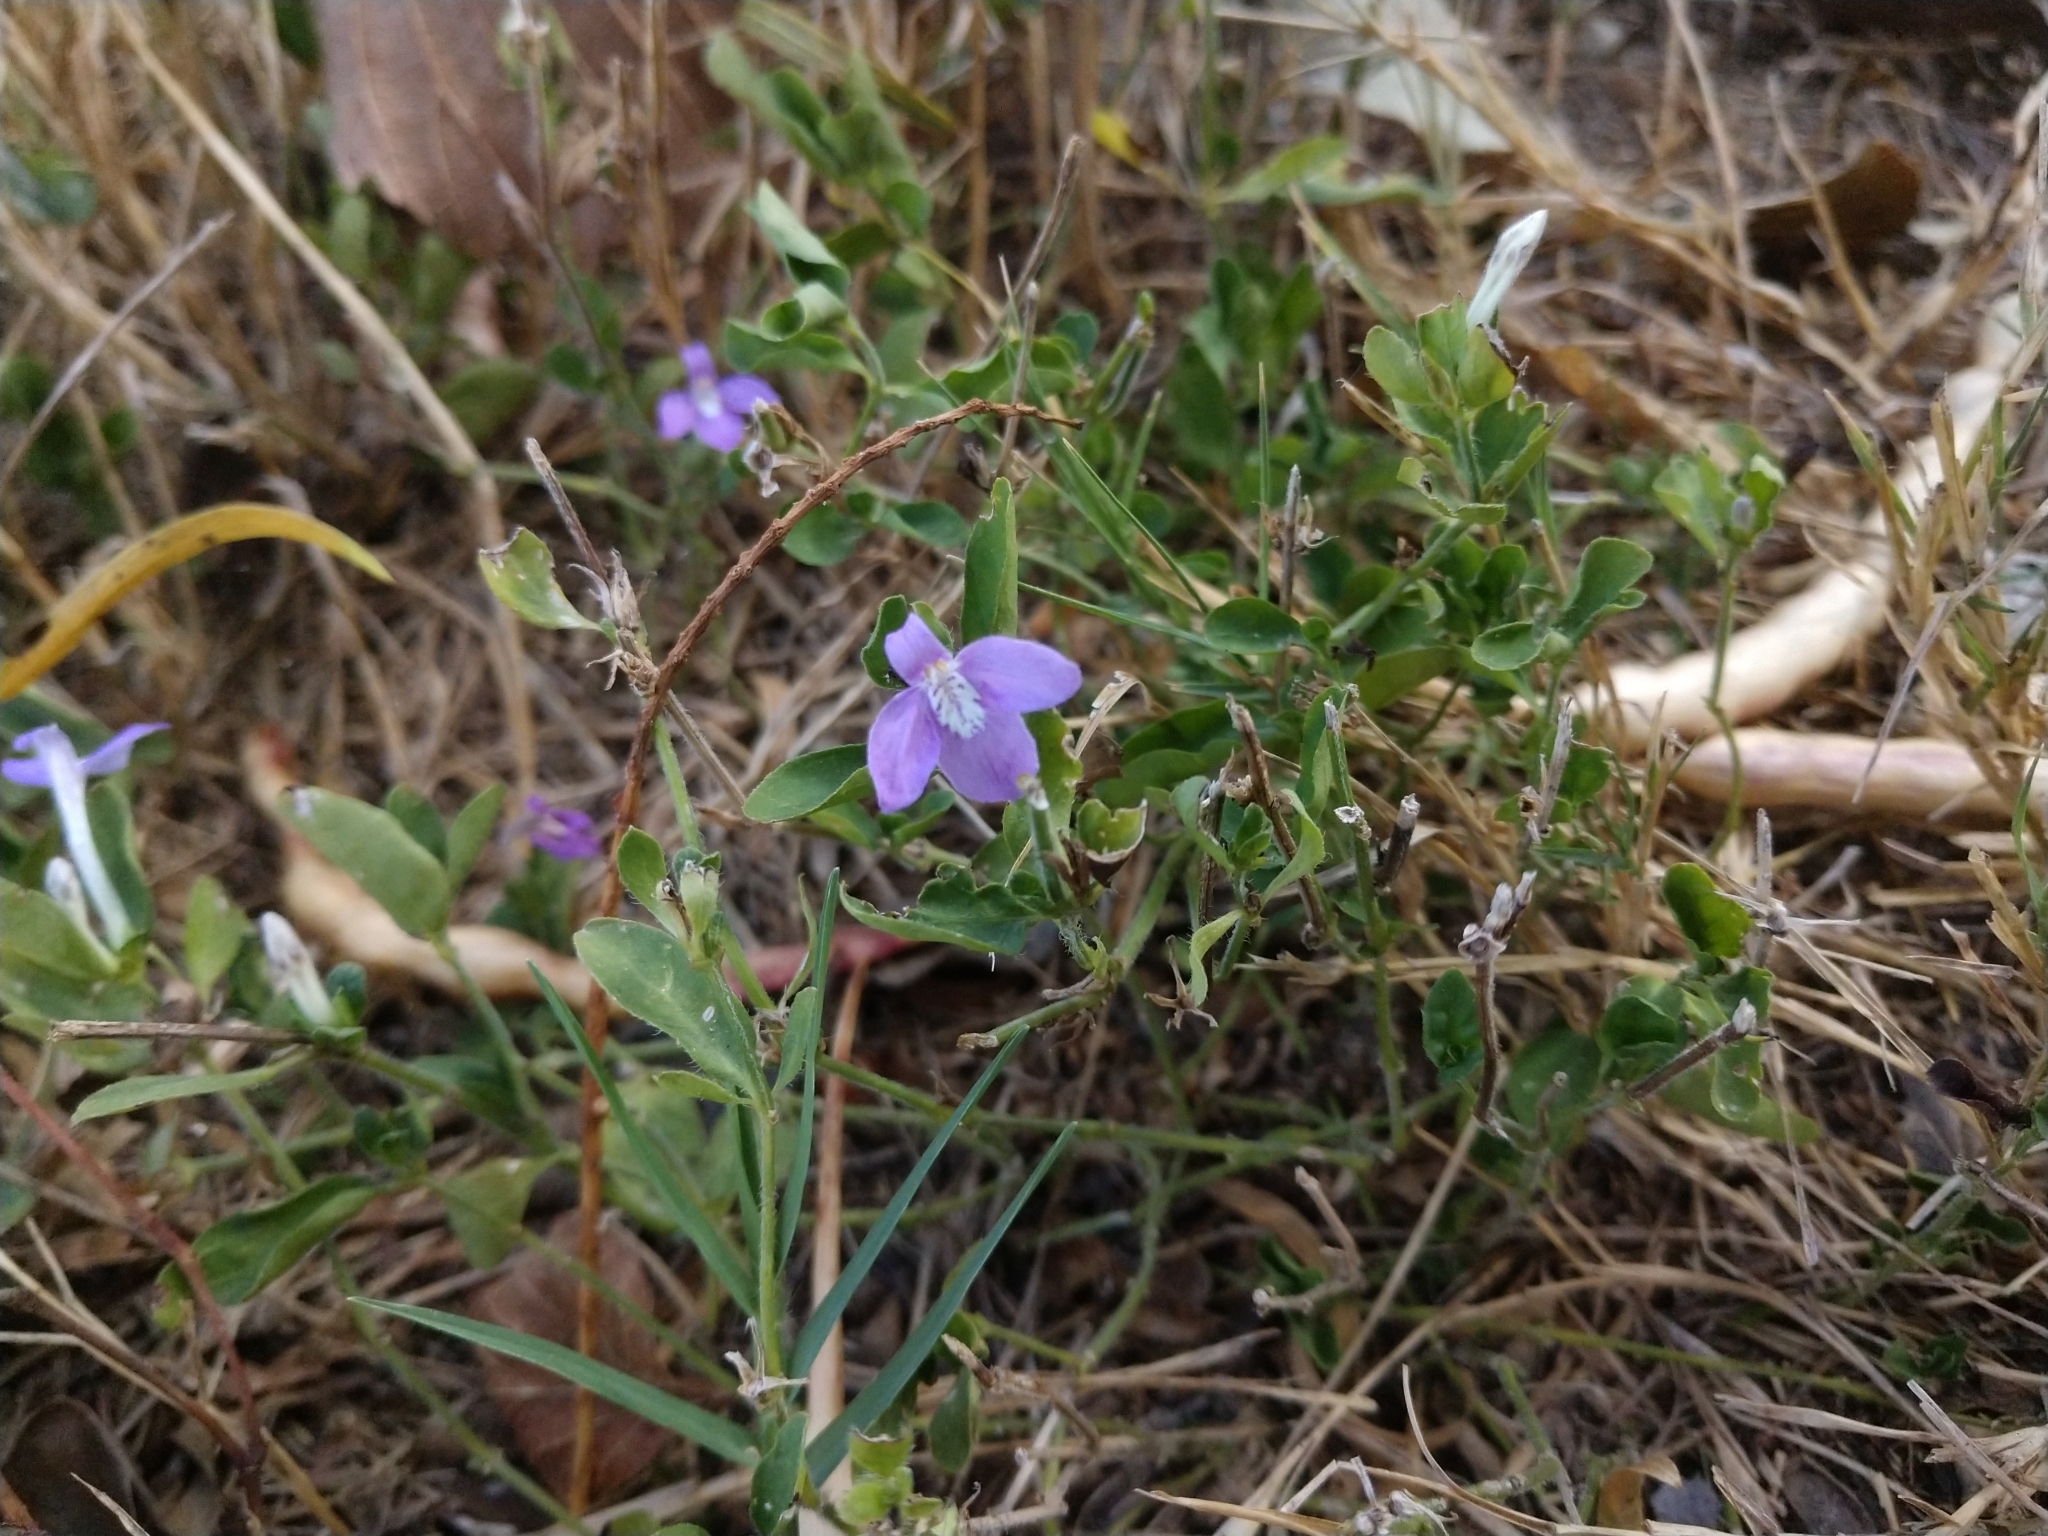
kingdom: Plantae
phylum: Tracheophyta
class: Magnoliopsida
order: Lamiales
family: Acanthaceae
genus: Justicia
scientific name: Justicia pilosella
